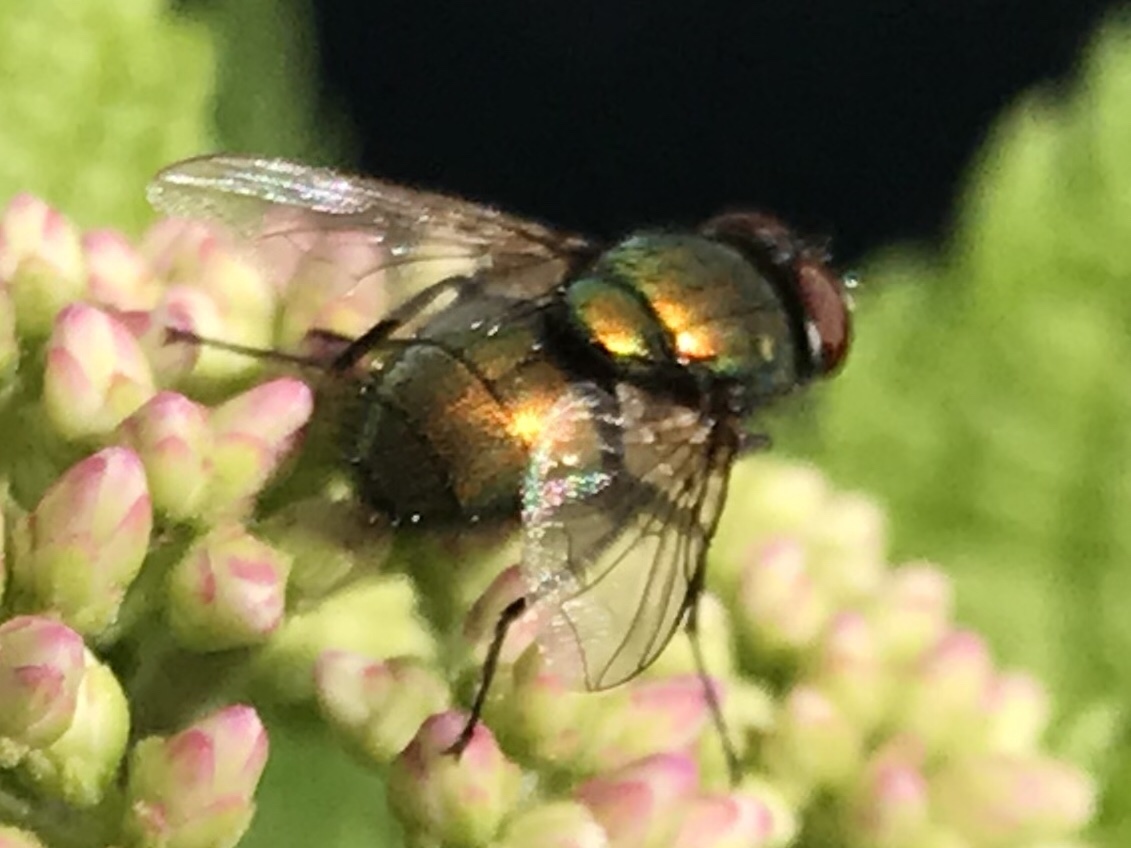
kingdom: Animalia
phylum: Arthropoda
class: Insecta
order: Diptera
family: Calliphoridae
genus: Lucilia
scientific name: Lucilia sericata
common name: Blow fly
